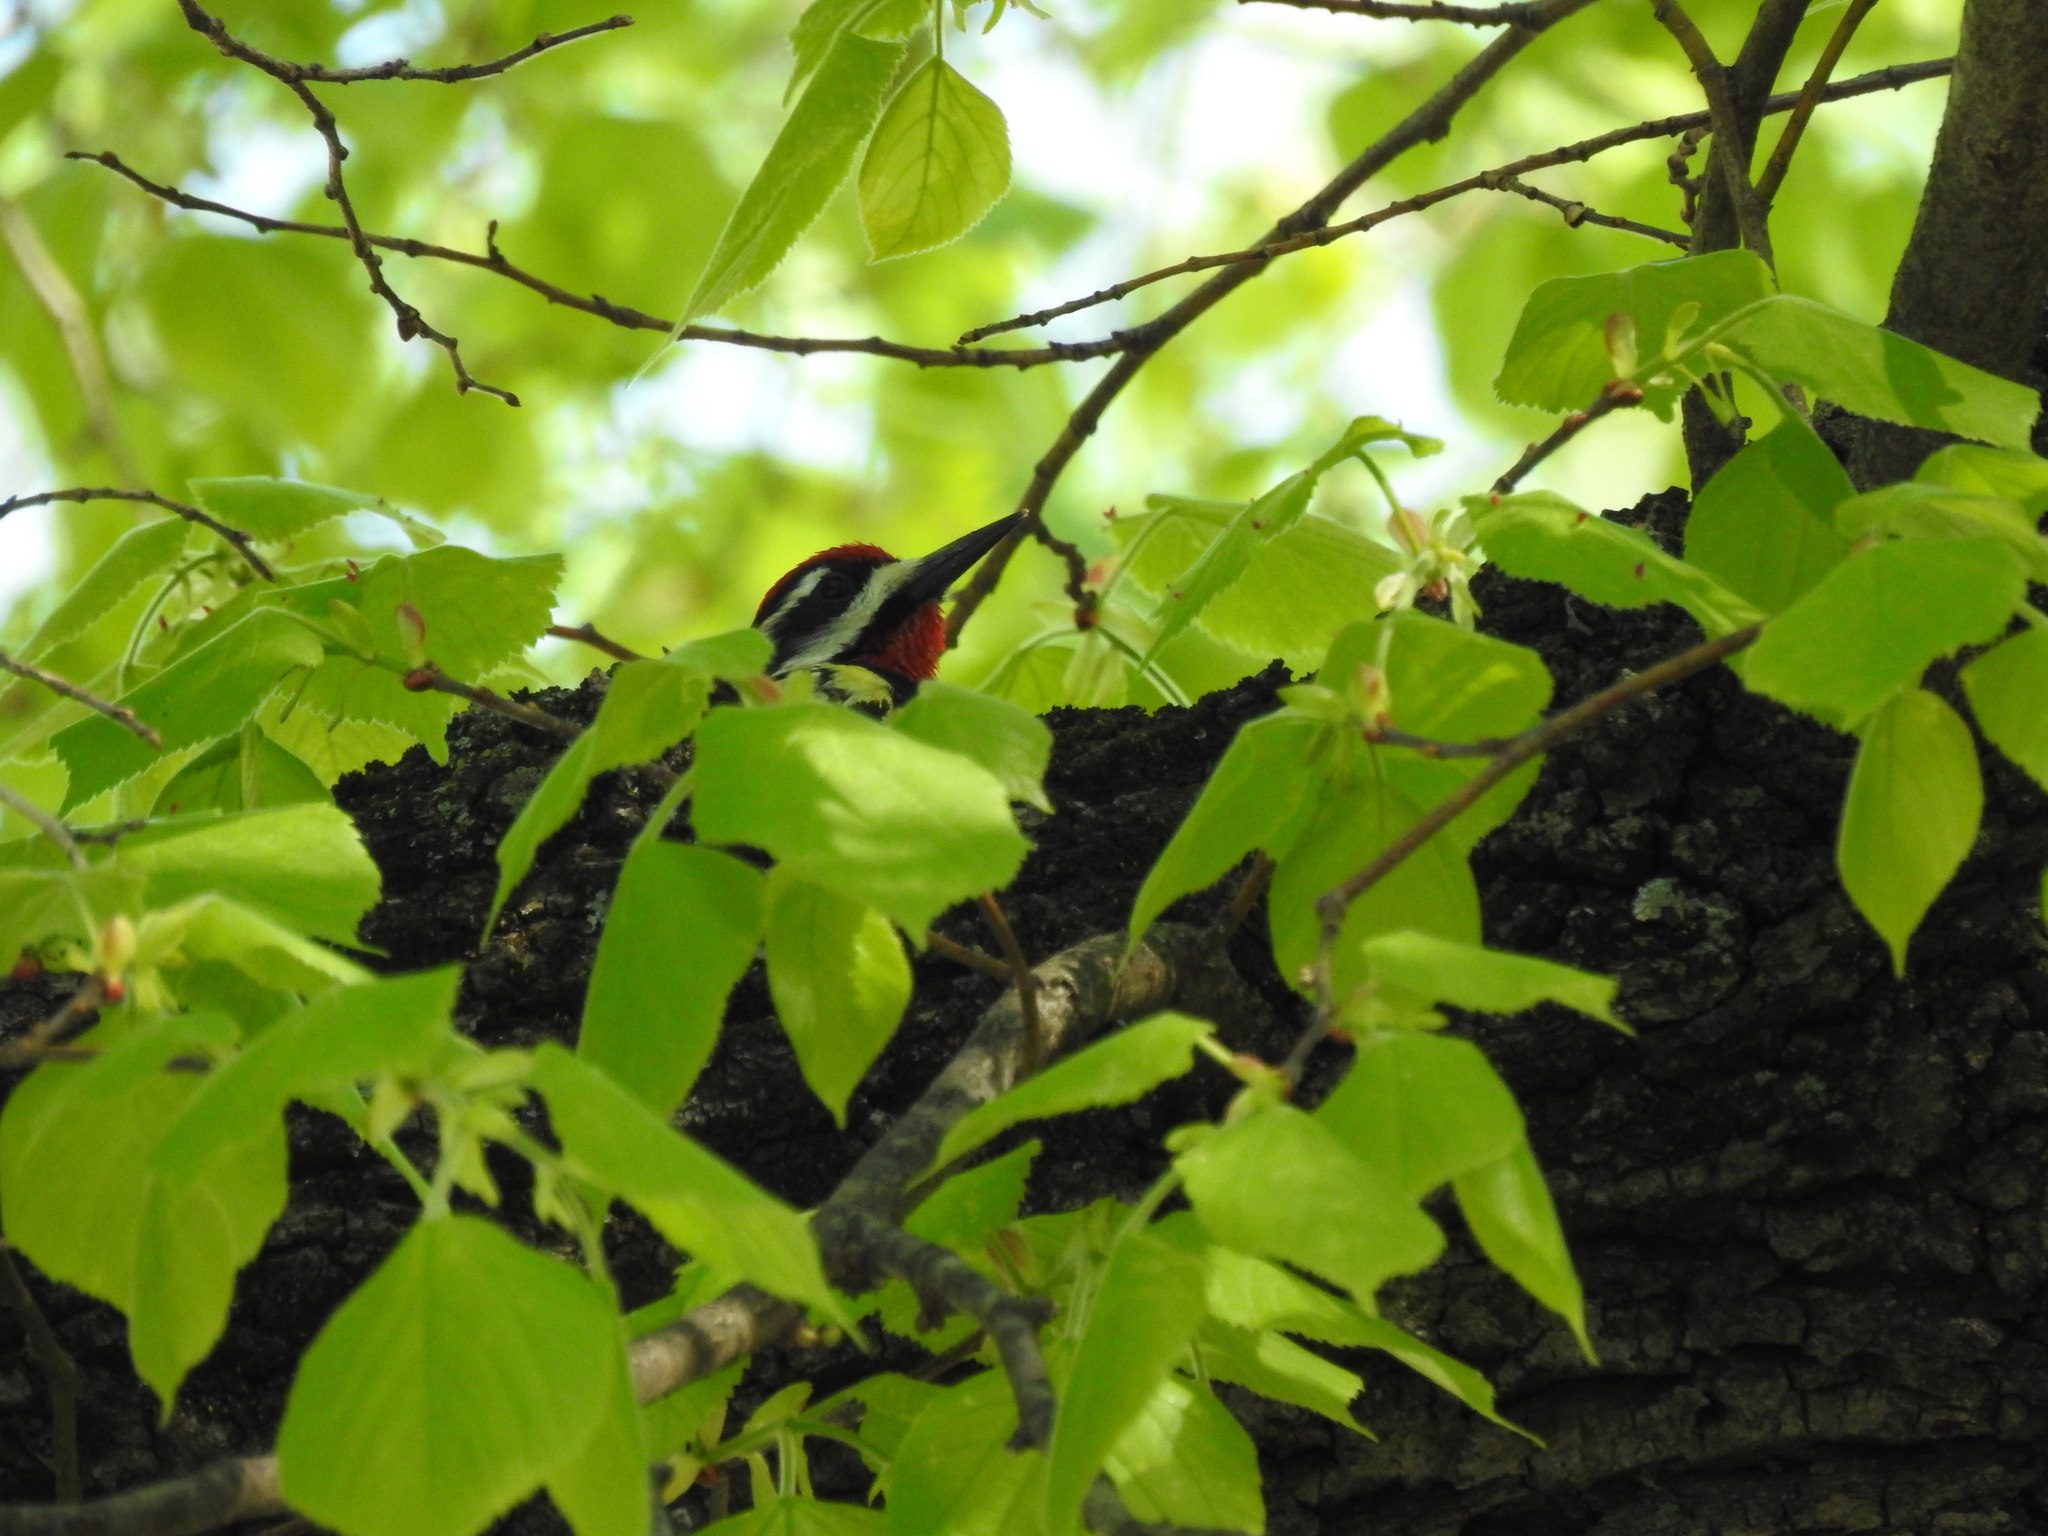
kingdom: Animalia
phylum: Chordata
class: Aves
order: Piciformes
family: Picidae
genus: Sphyrapicus
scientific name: Sphyrapicus varius
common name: Yellow-bellied sapsucker
